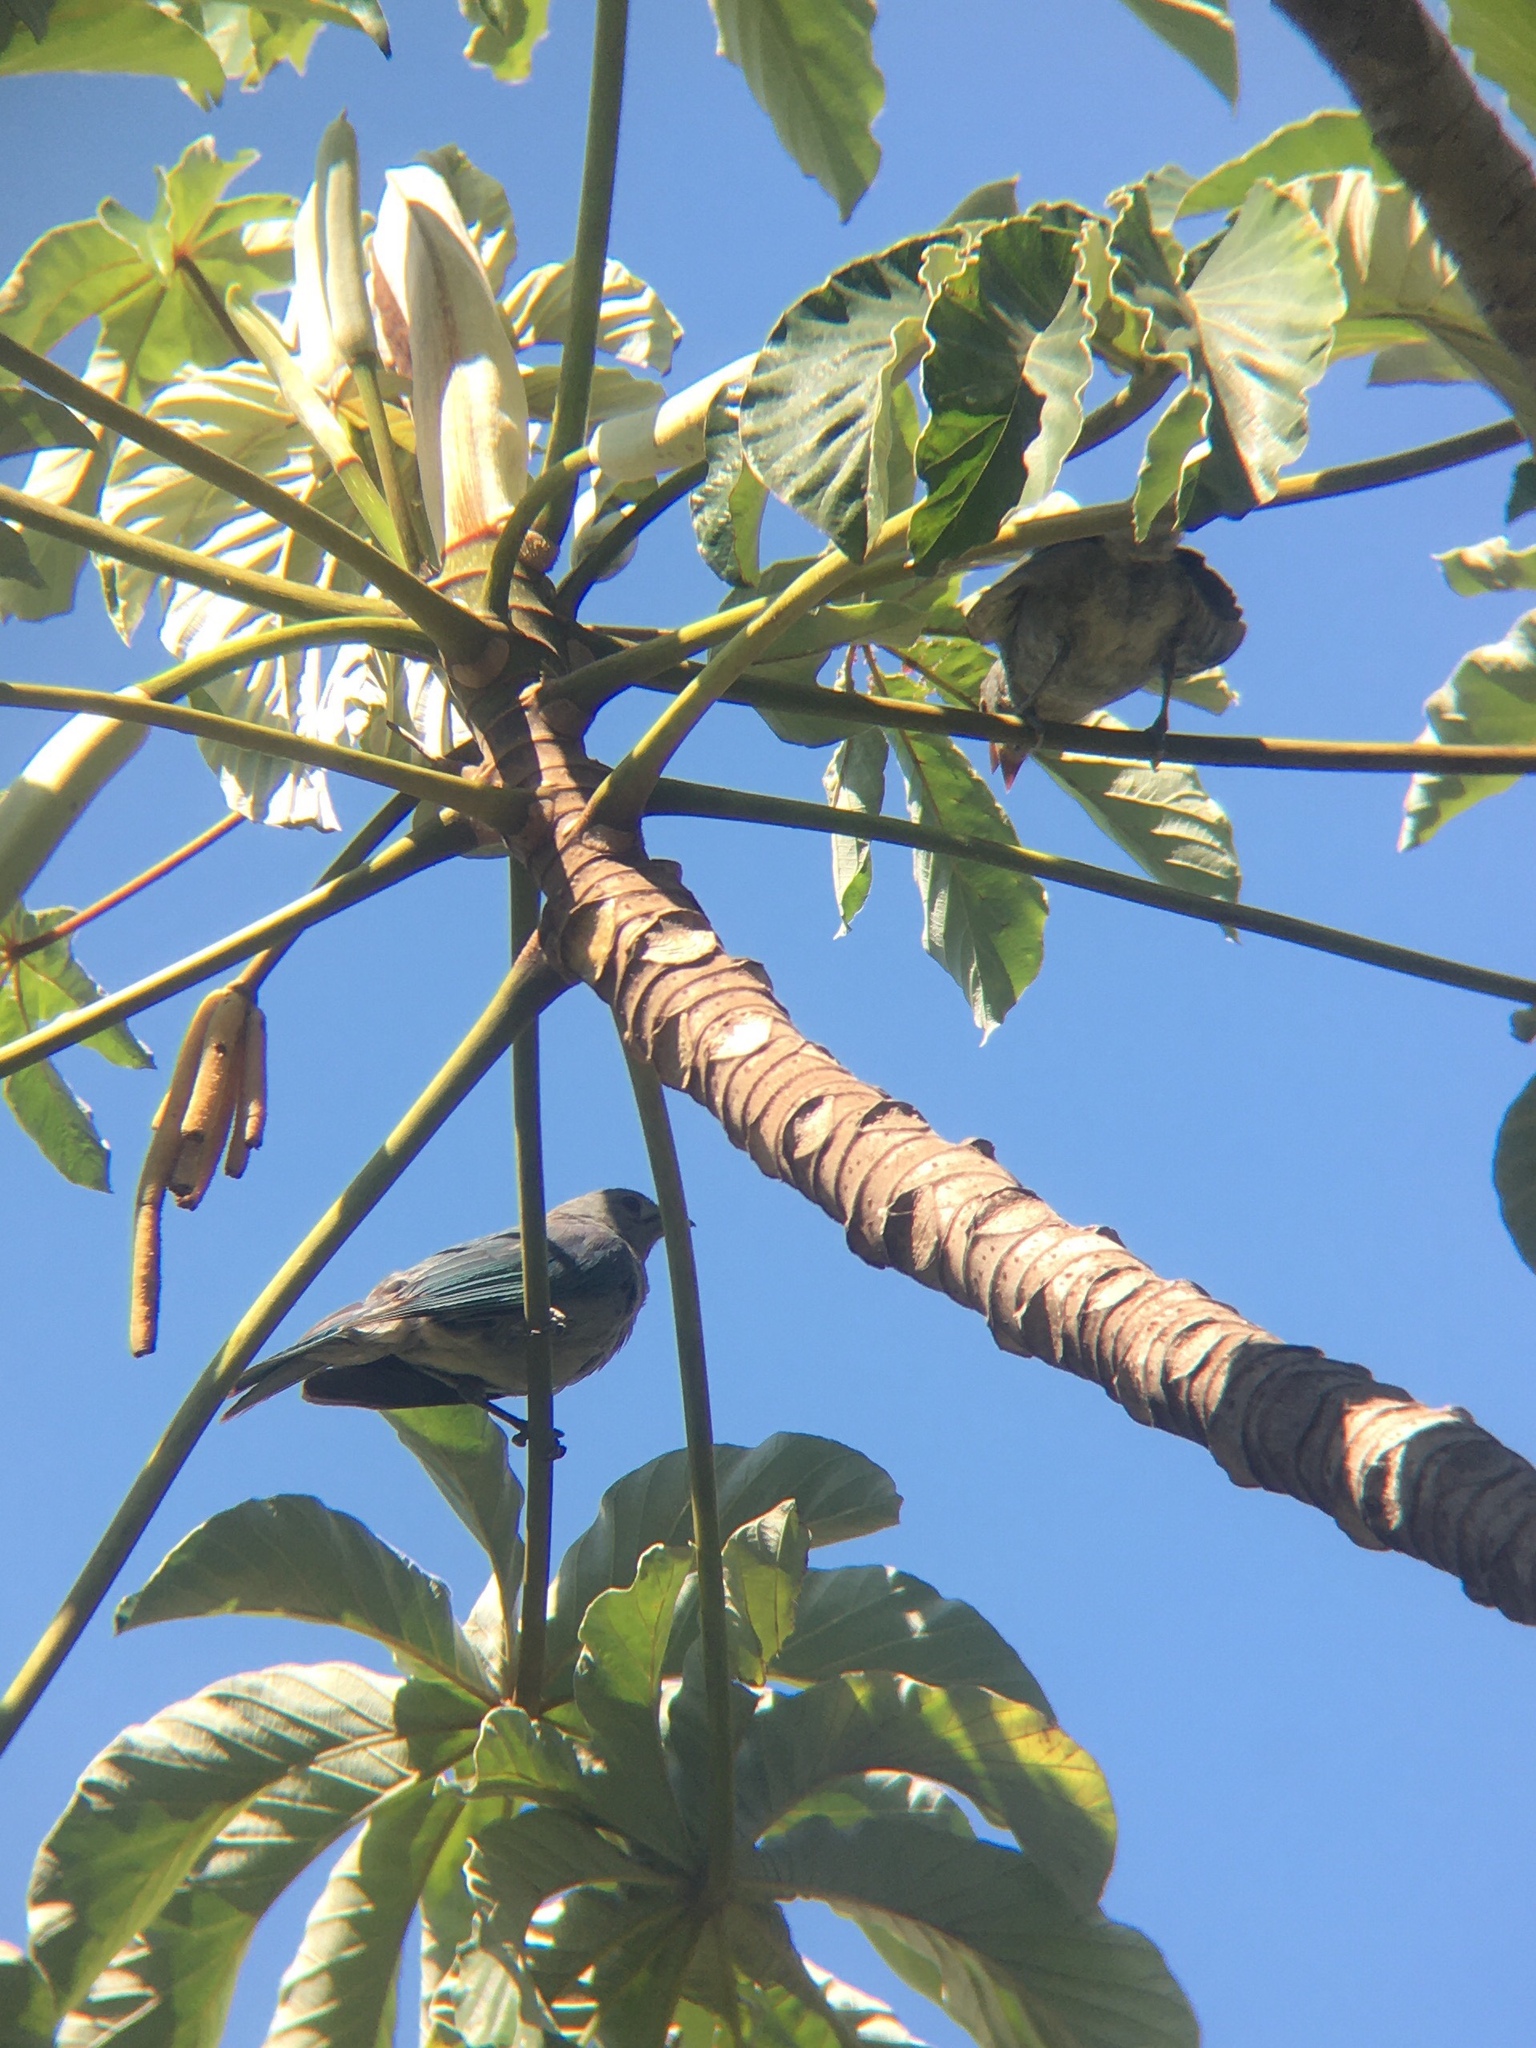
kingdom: Animalia
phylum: Chordata
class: Aves
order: Passeriformes
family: Thraupidae
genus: Thraupis
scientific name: Thraupis sayaca
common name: Sayaca tanager
